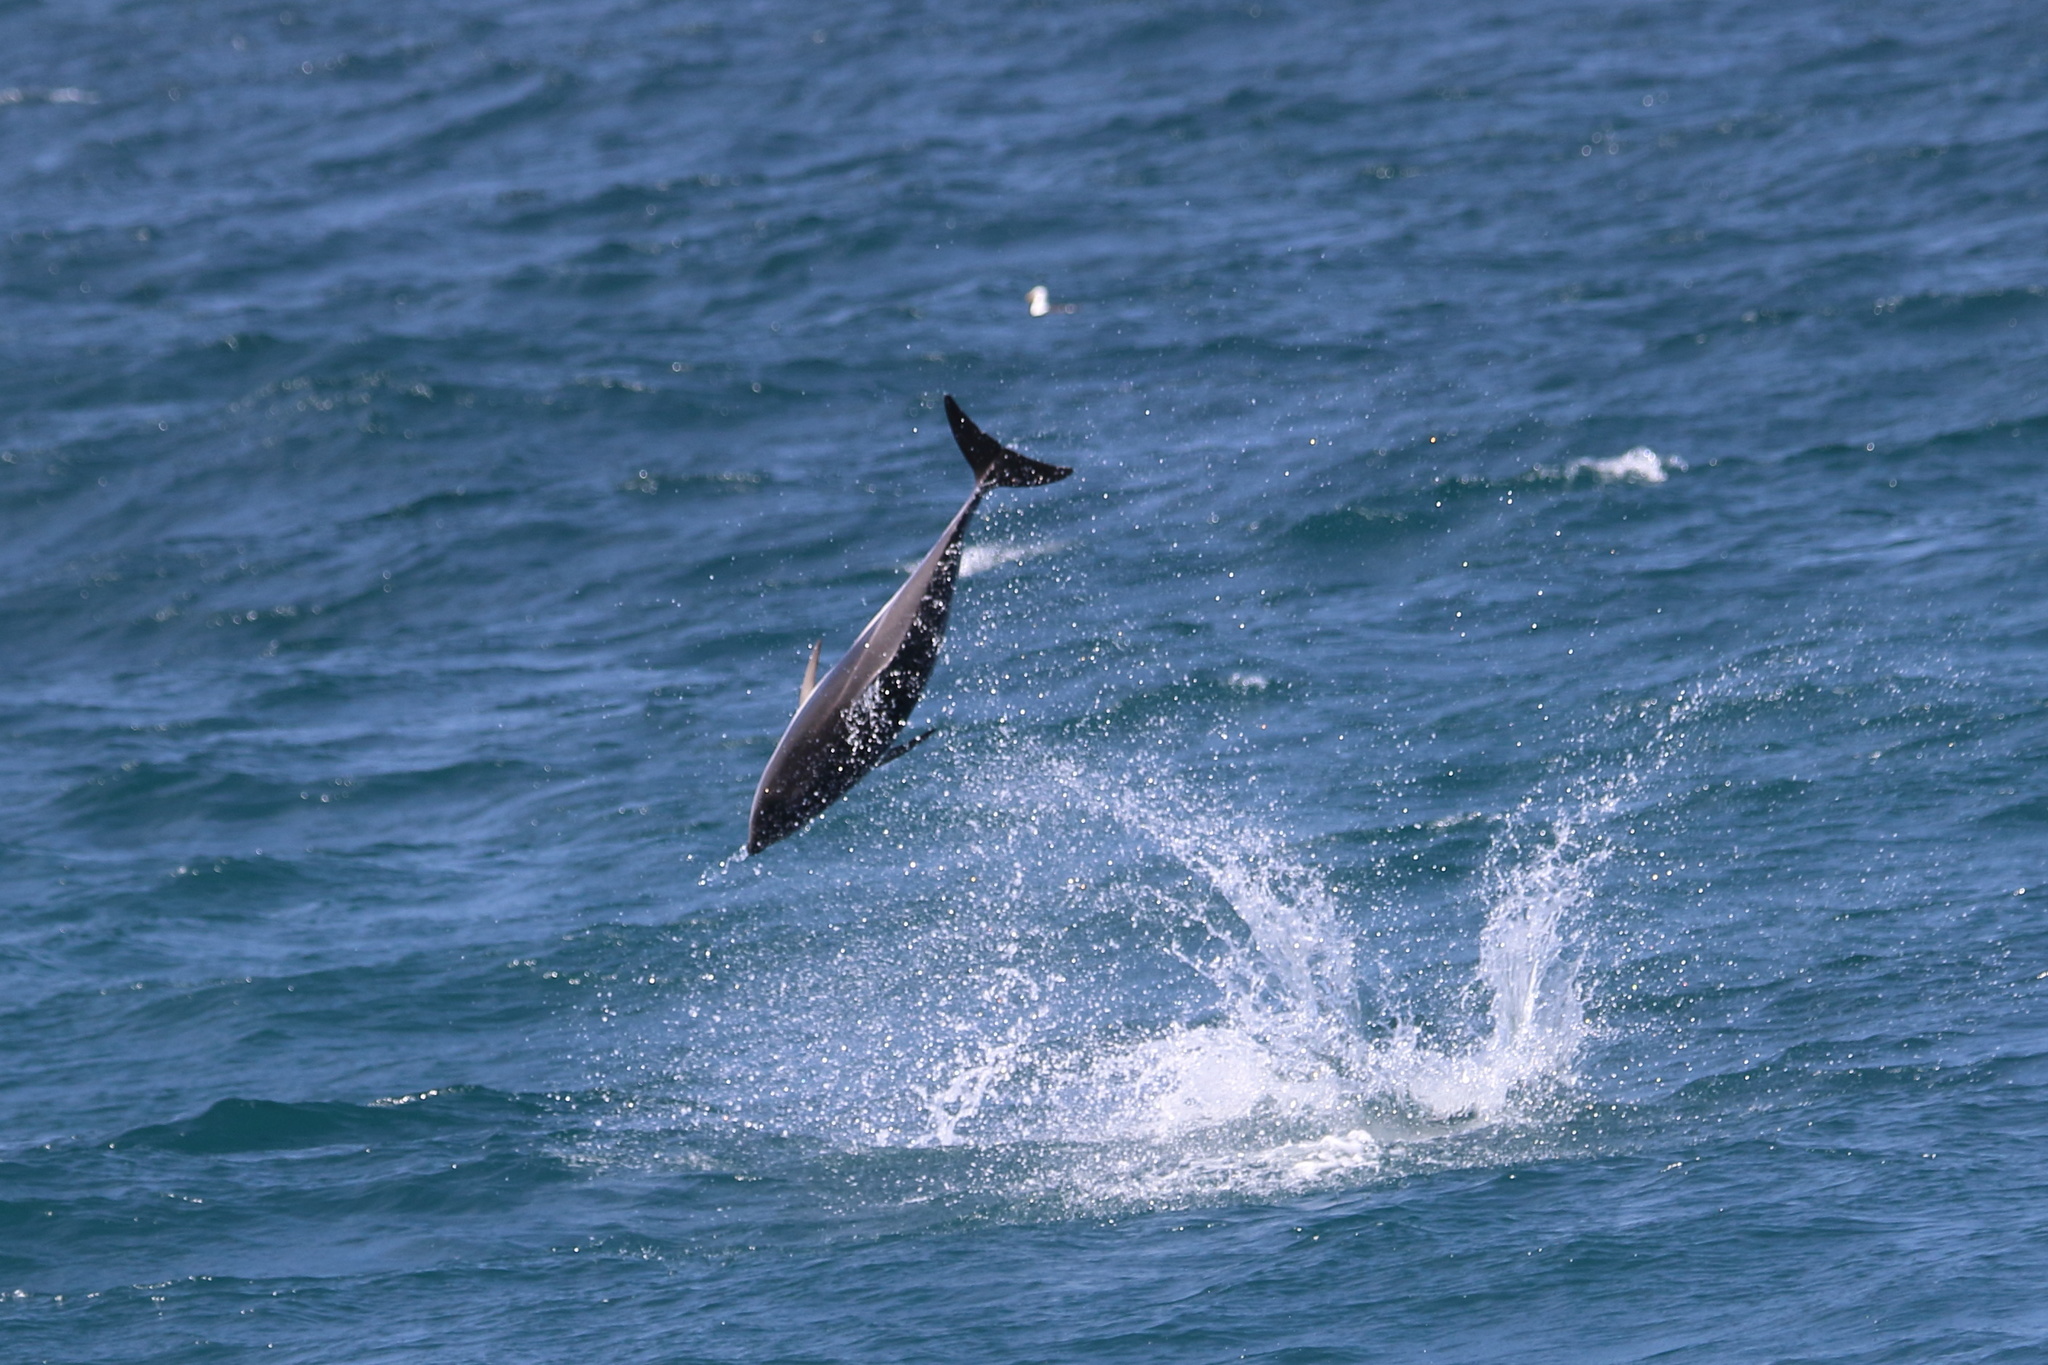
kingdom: Animalia
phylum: Chordata
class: Mammalia
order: Cetacea
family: Delphinidae
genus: Lagenorhynchus
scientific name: Lagenorhynchus obscurus
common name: Dusky dolphin
